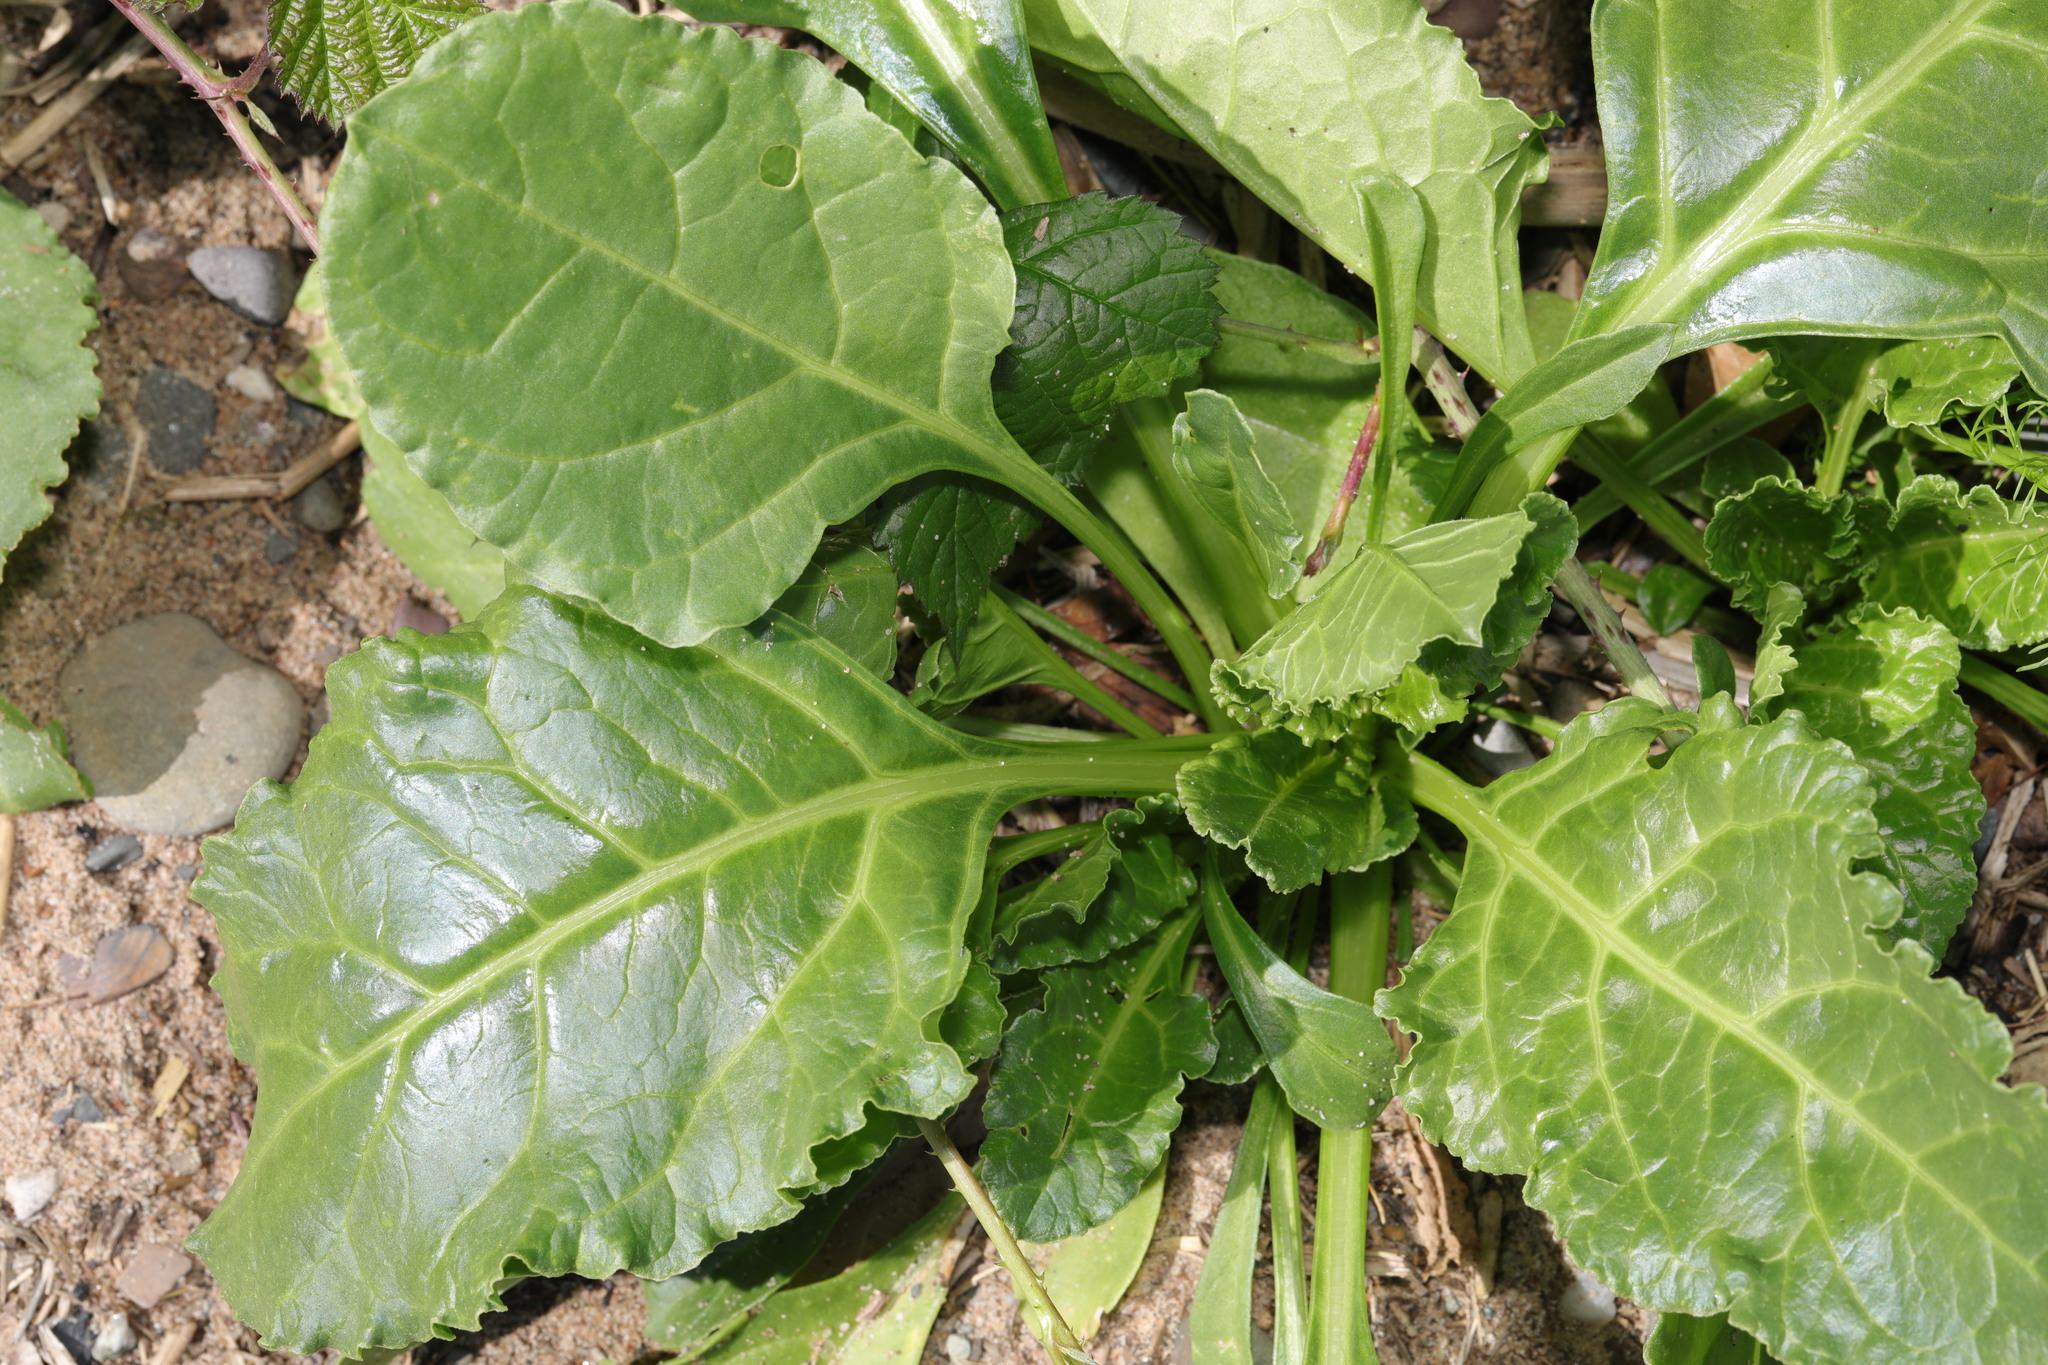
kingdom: Plantae
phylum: Tracheophyta
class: Magnoliopsida
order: Caryophyllales
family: Amaranthaceae
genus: Beta
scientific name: Beta vulgaris
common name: Beet
